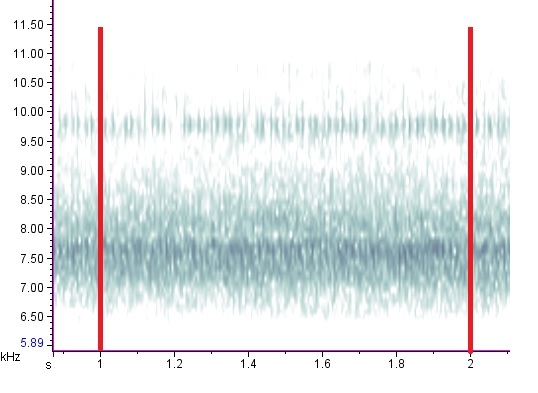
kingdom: Animalia
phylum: Arthropoda
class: Insecta
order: Orthoptera
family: Trigonidiidae
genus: Phyllopalpus
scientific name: Phyllopalpus pulchellus
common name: Handsome trig
